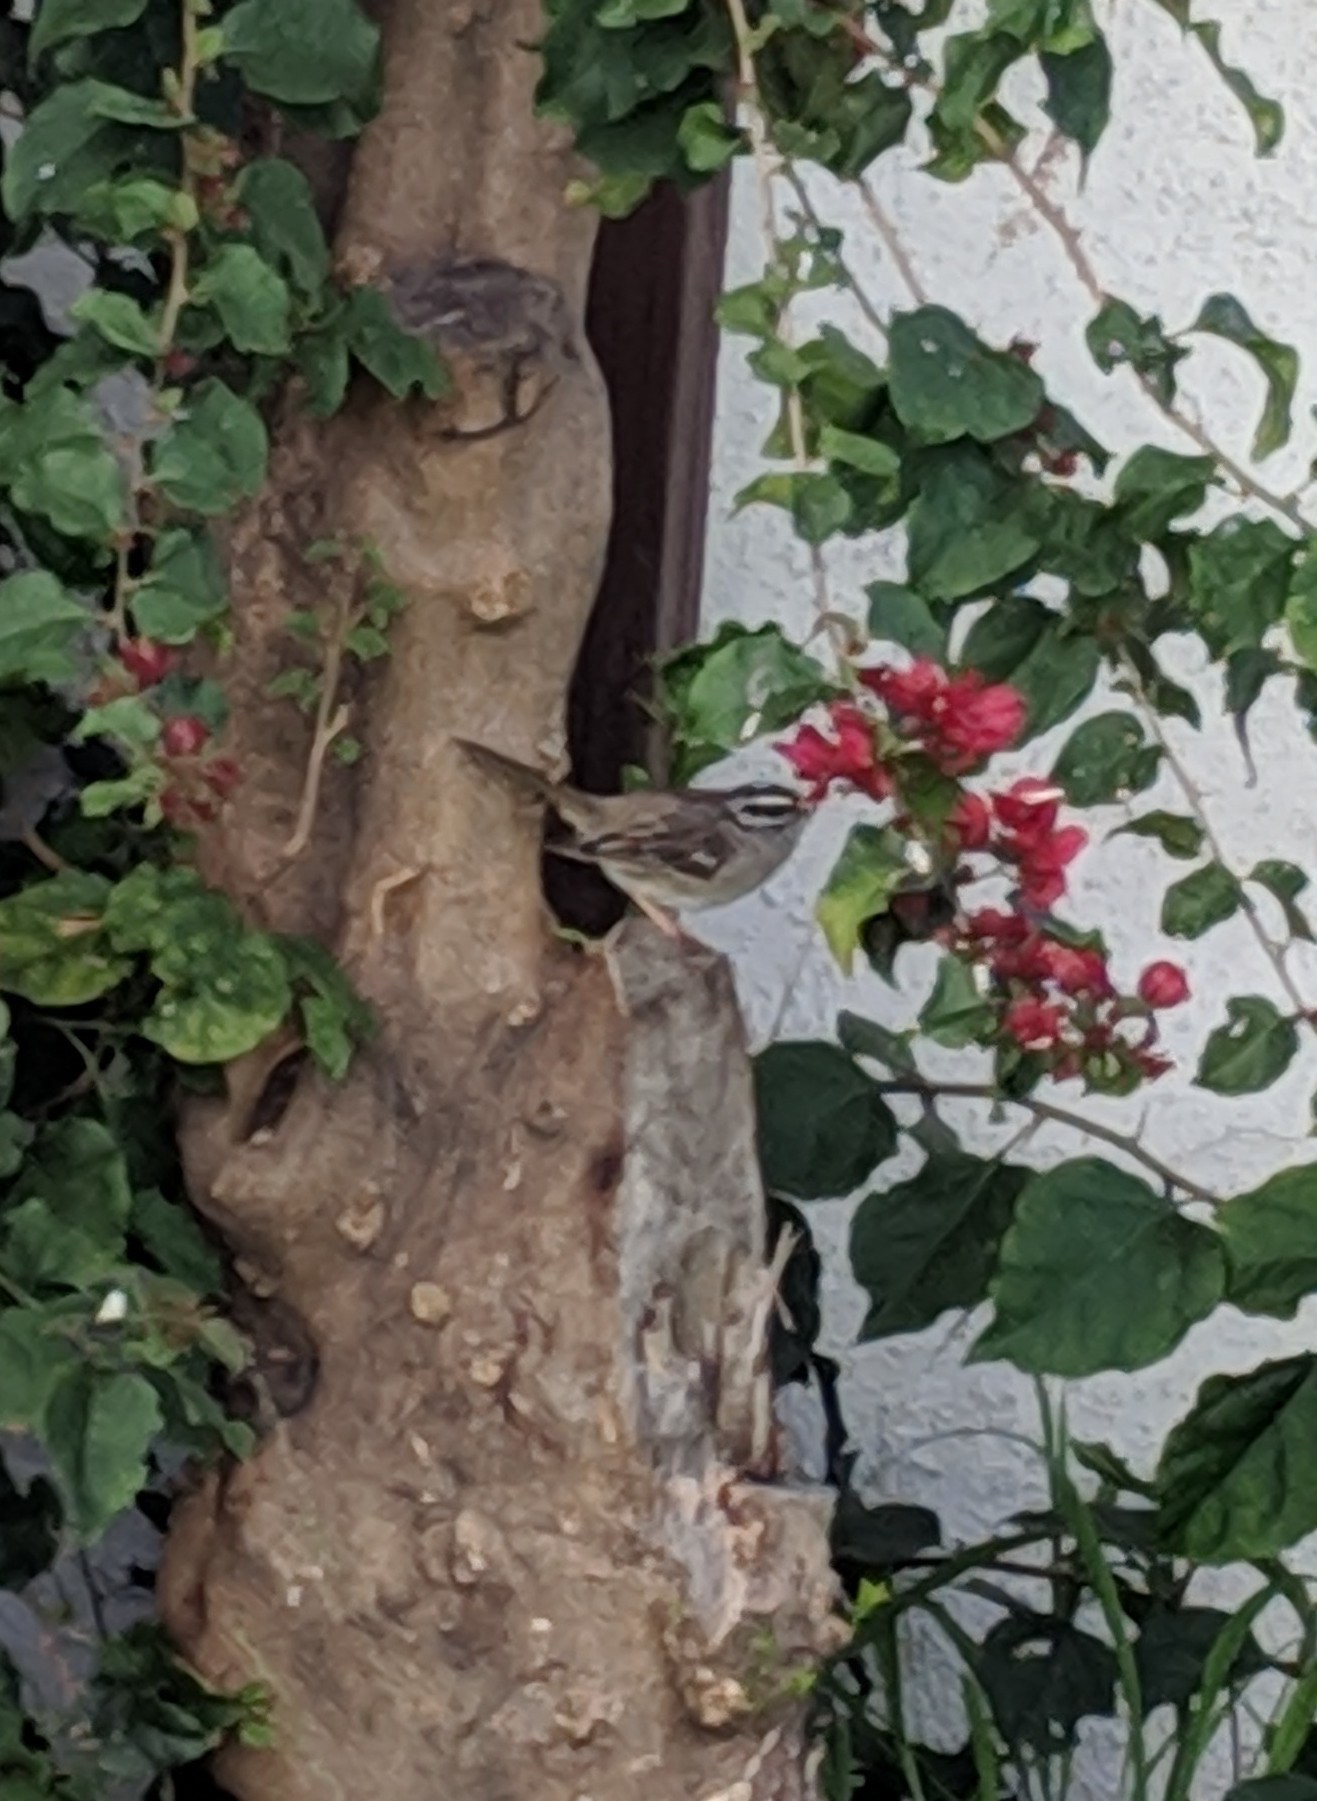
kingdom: Animalia
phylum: Chordata
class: Aves
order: Passeriformes
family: Passerellidae
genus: Zonotrichia
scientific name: Zonotrichia leucophrys
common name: White-crowned sparrow
